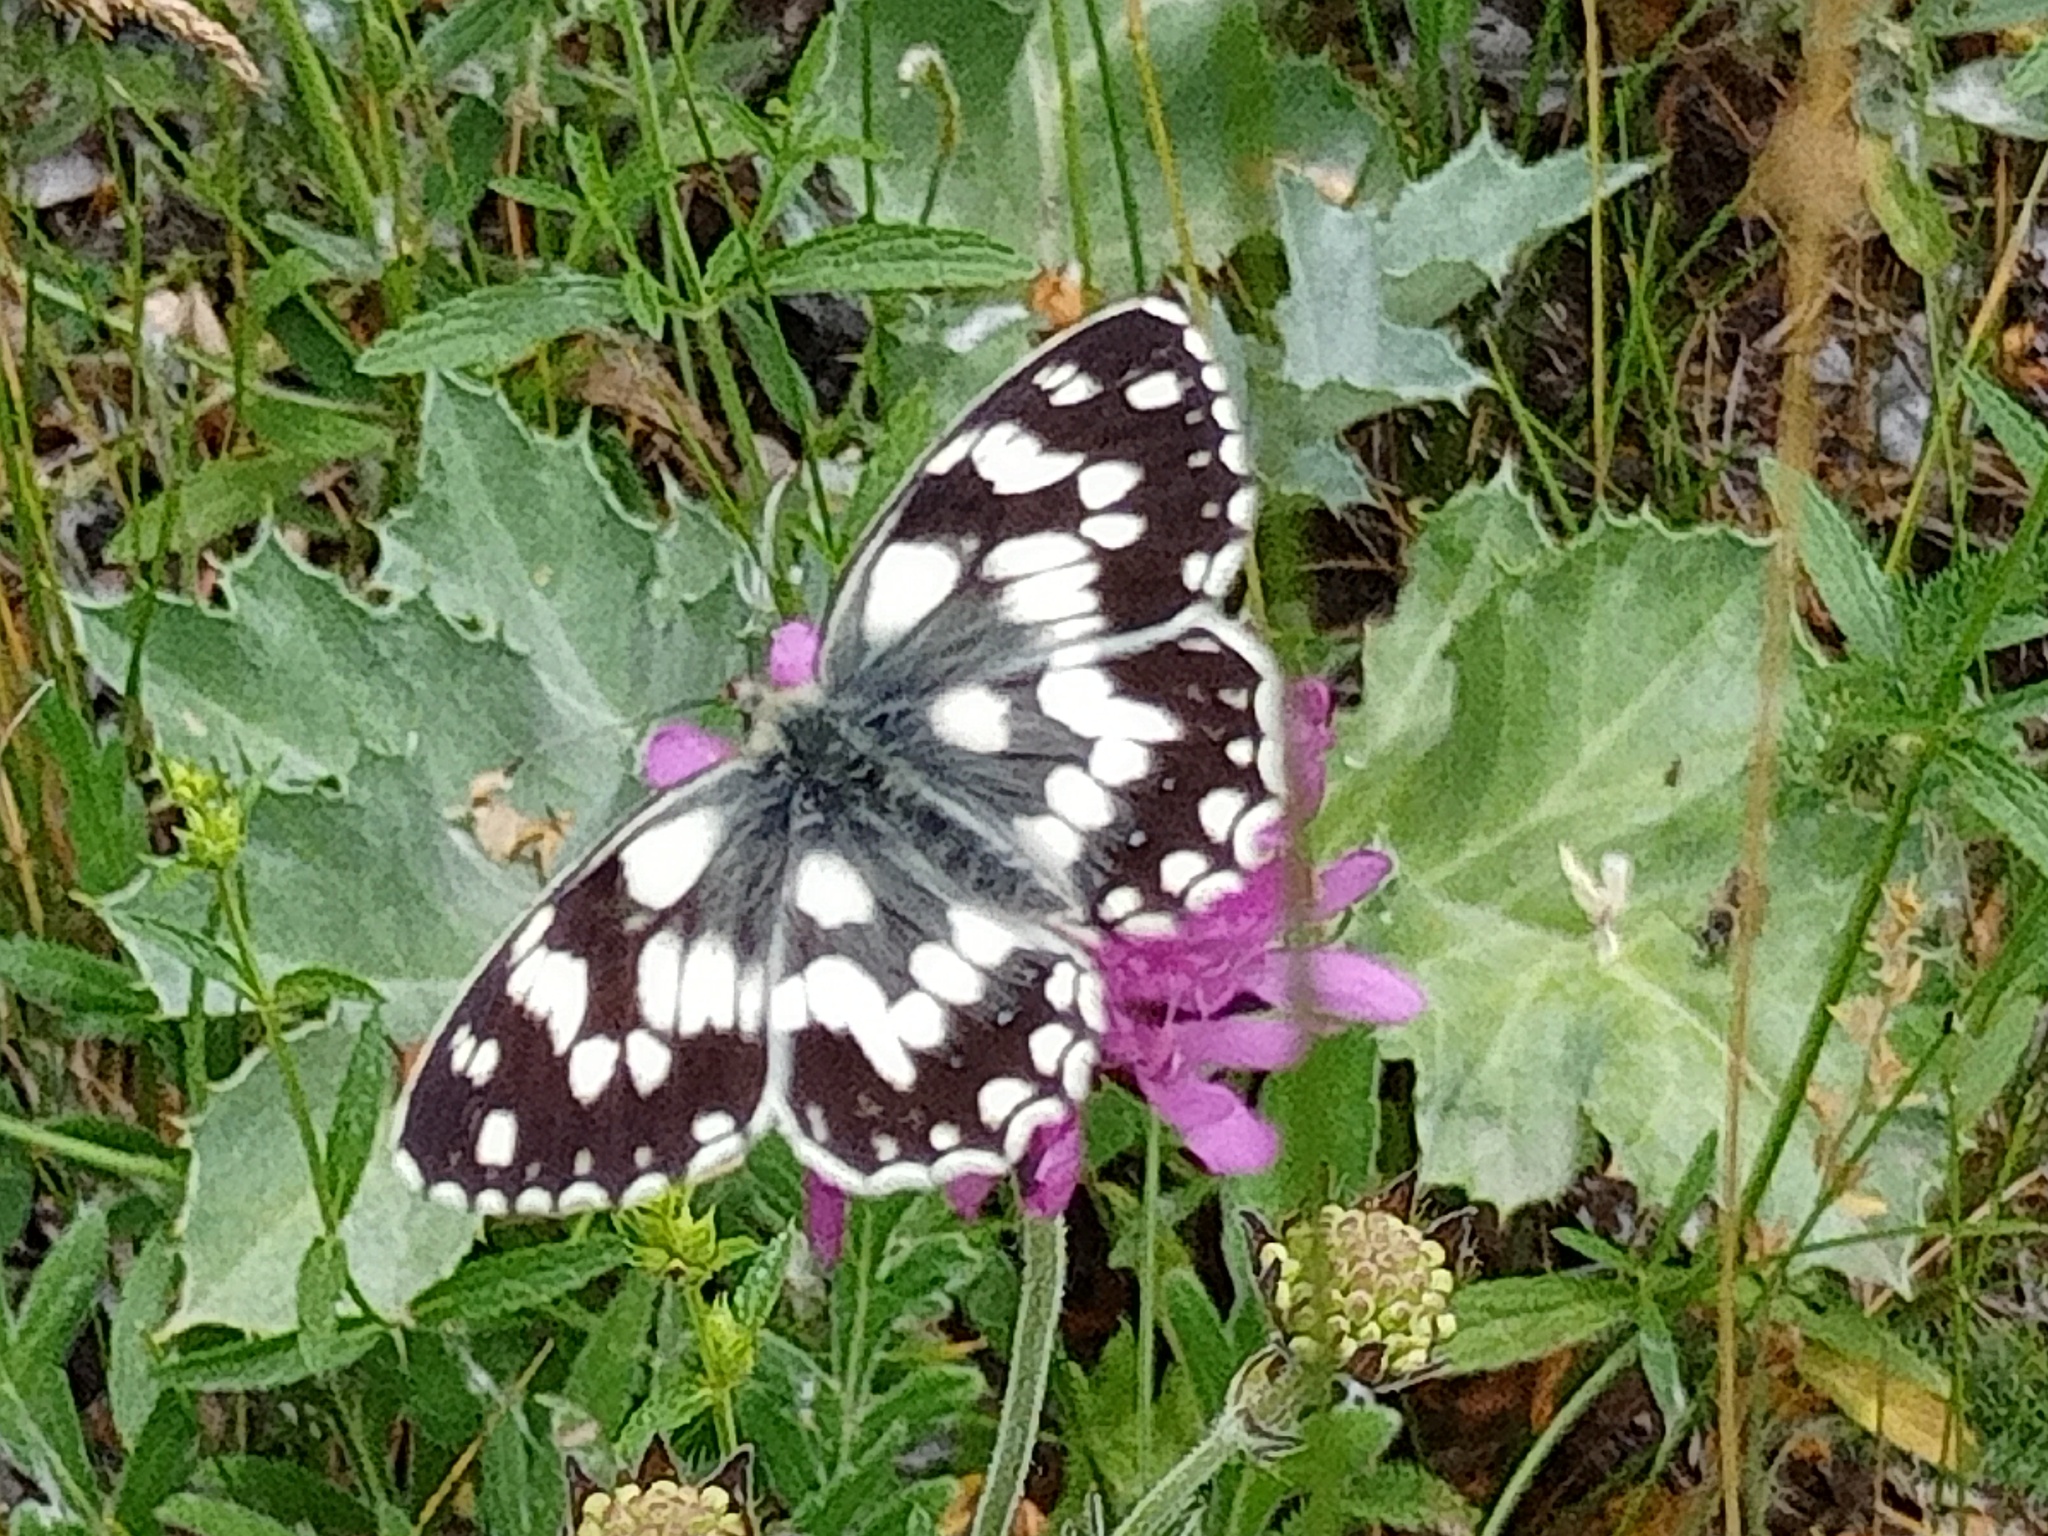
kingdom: Animalia
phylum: Arthropoda
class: Insecta
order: Lepidoptera
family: Nymphalidae
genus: Melanargia
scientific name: Melanargia galathea
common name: Marbled white
